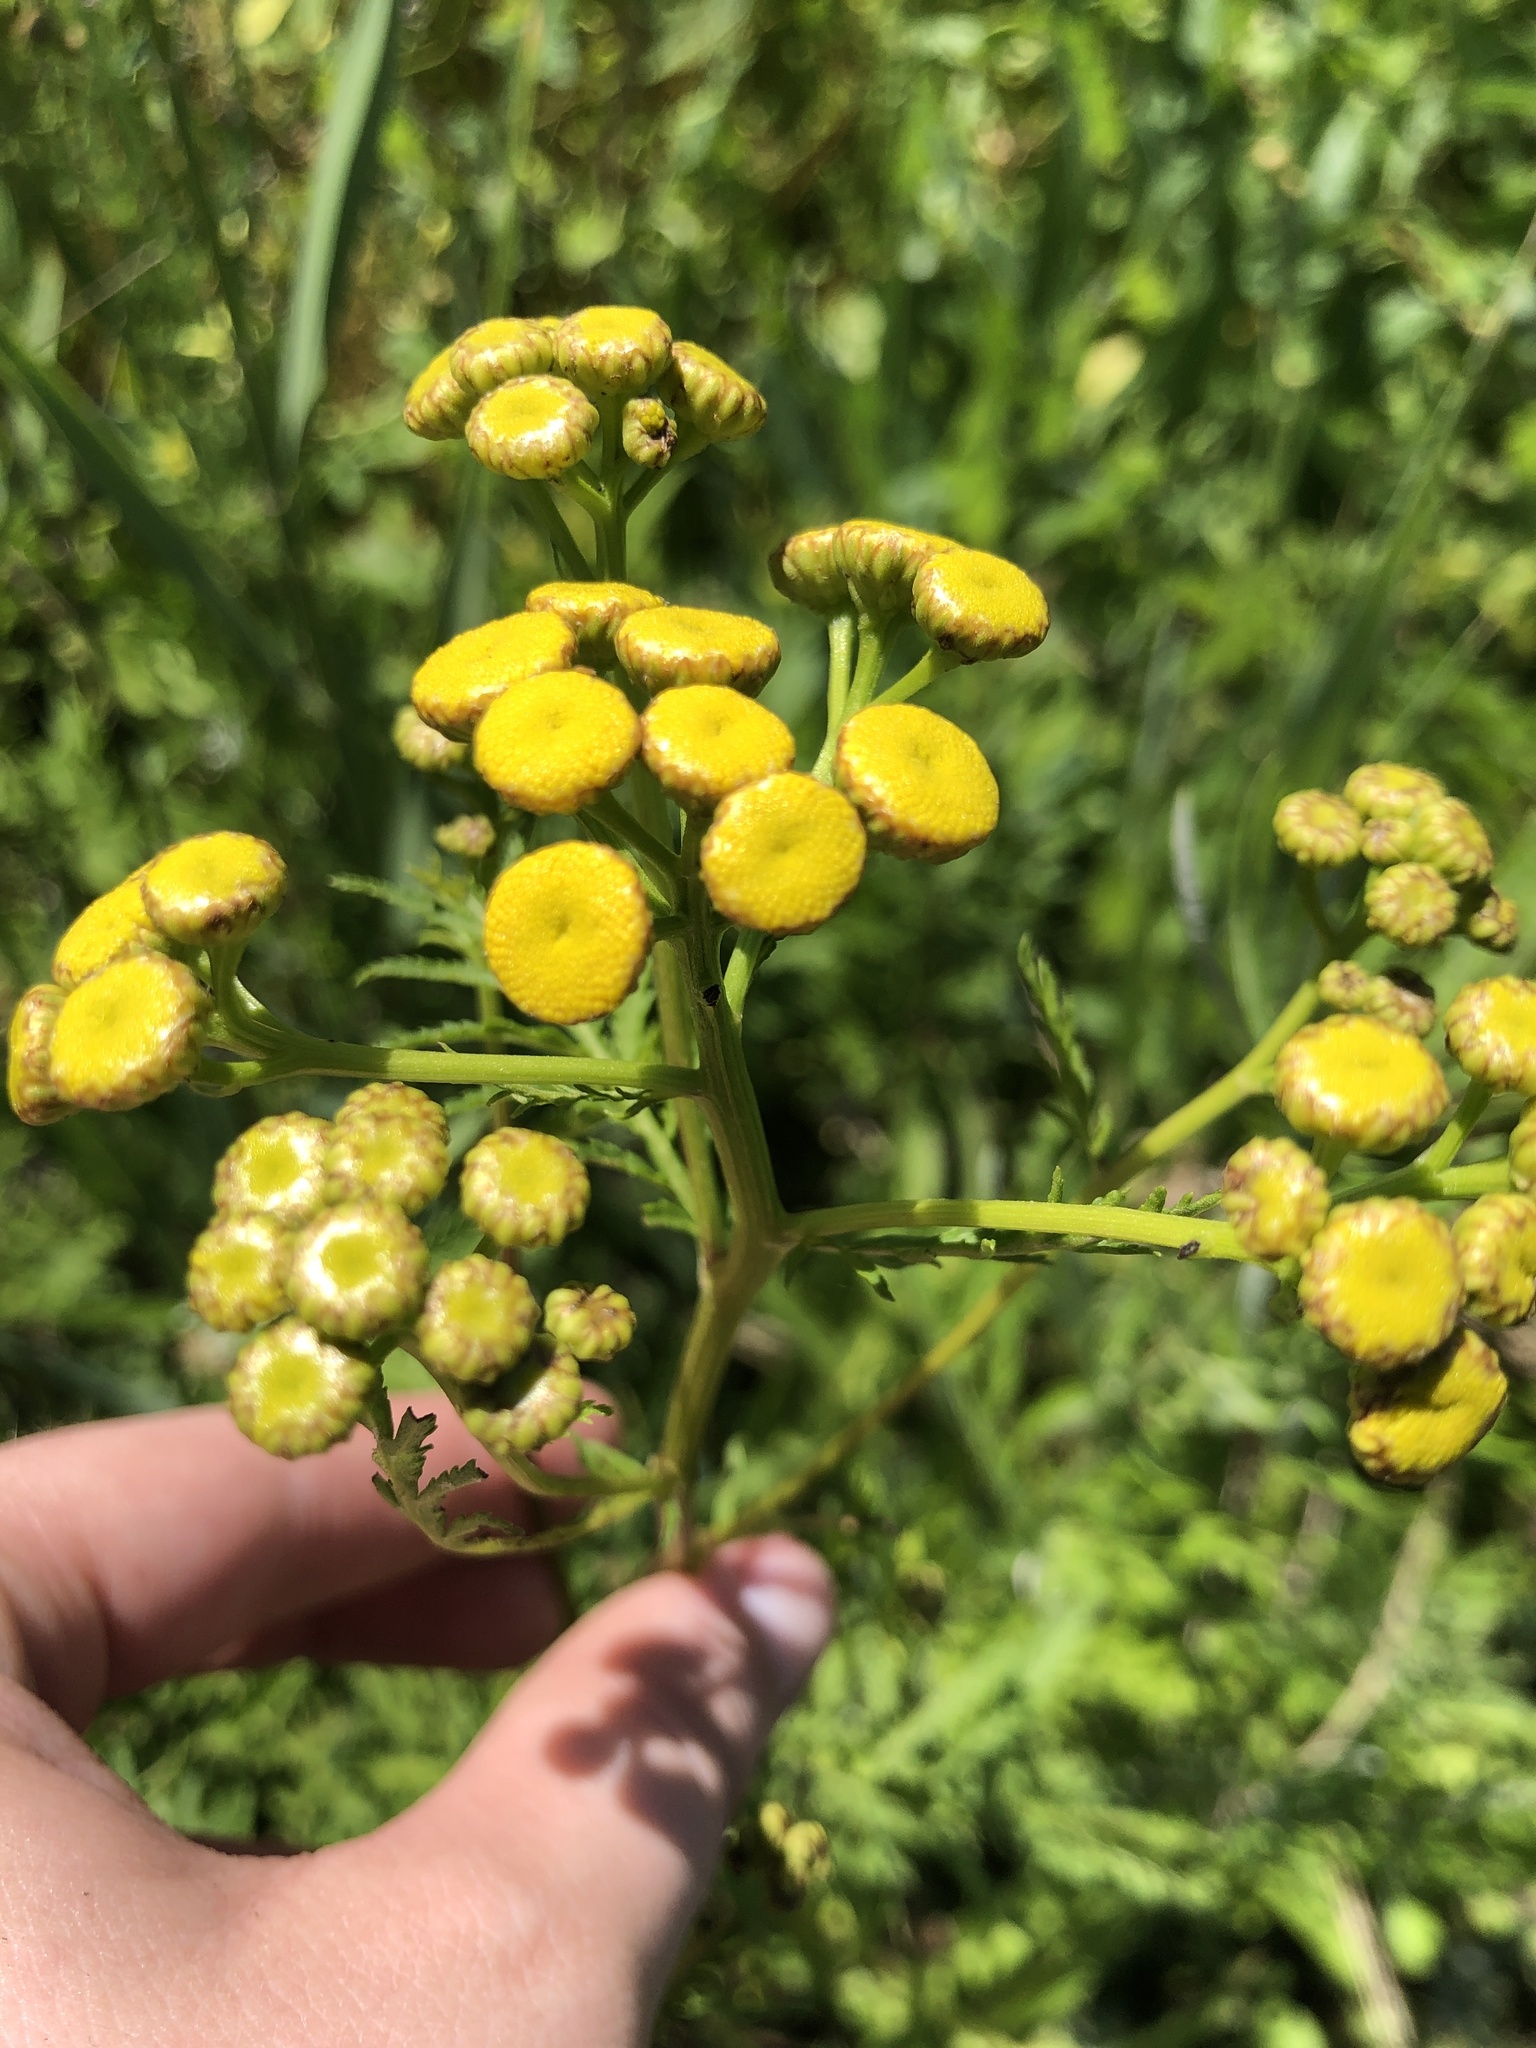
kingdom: Plantae
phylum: Tracheophyta
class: Magnoliopsida
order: Asterales
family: Asteraceae
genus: Tanacetum
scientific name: Tanacetum vulgare
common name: Common tansy
